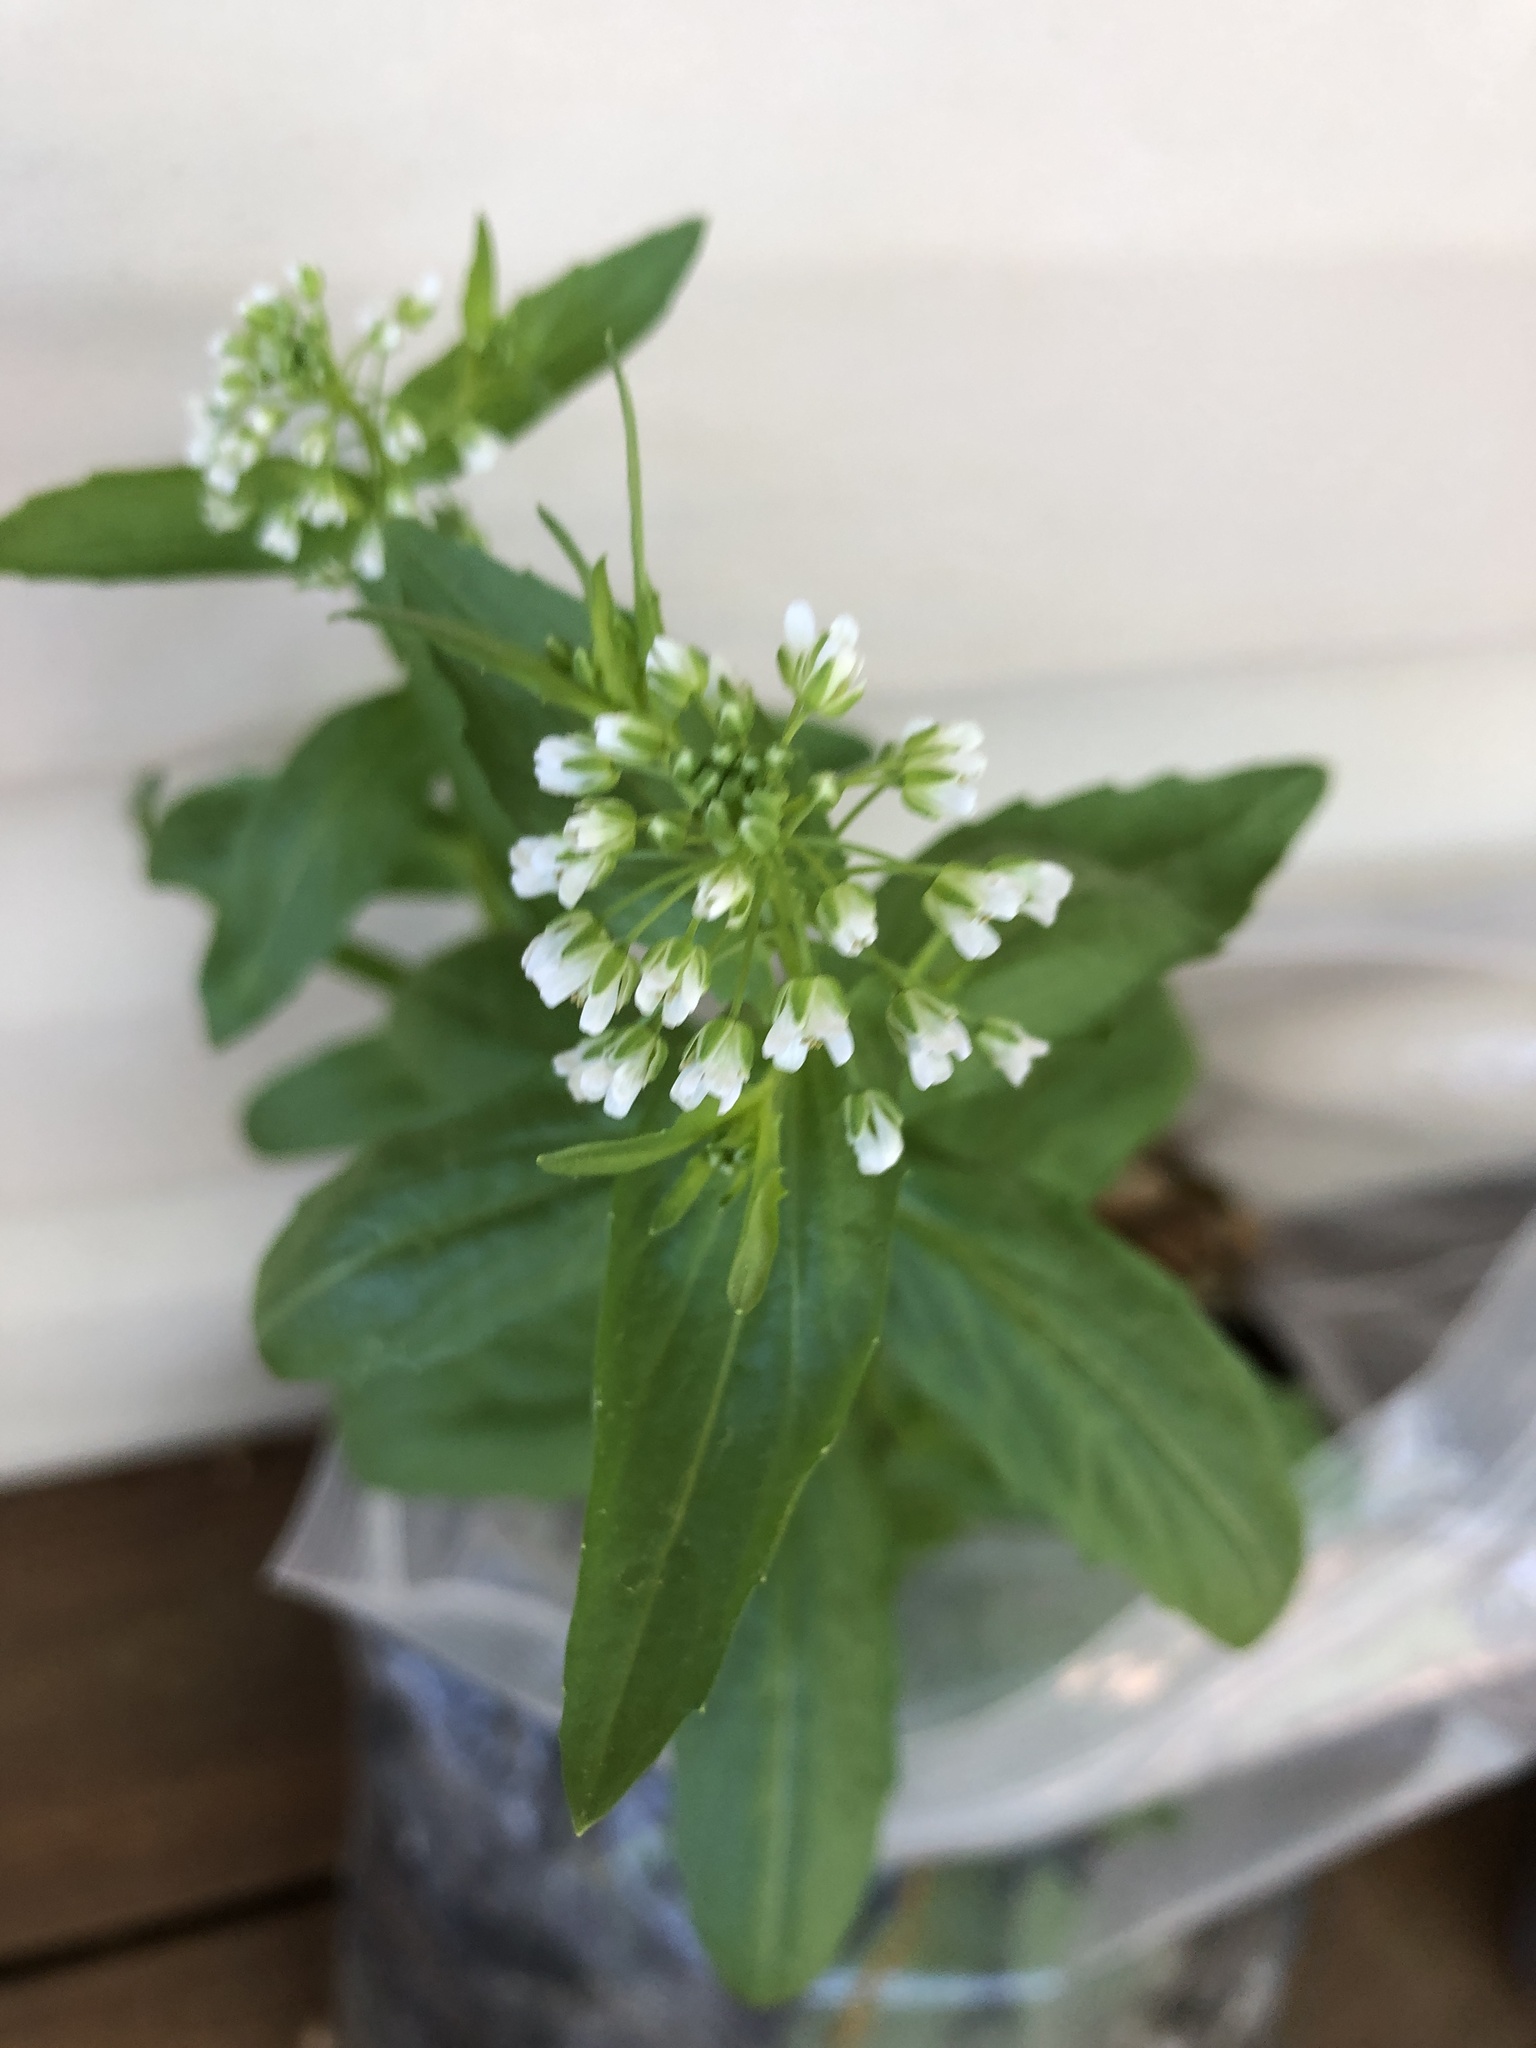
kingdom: Plantae
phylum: Tracheophyta
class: Magnoliopsida
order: Brassicales
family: Brassicaceae
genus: Thlaspi
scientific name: Thlaspi arvense
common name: Field pennycress
